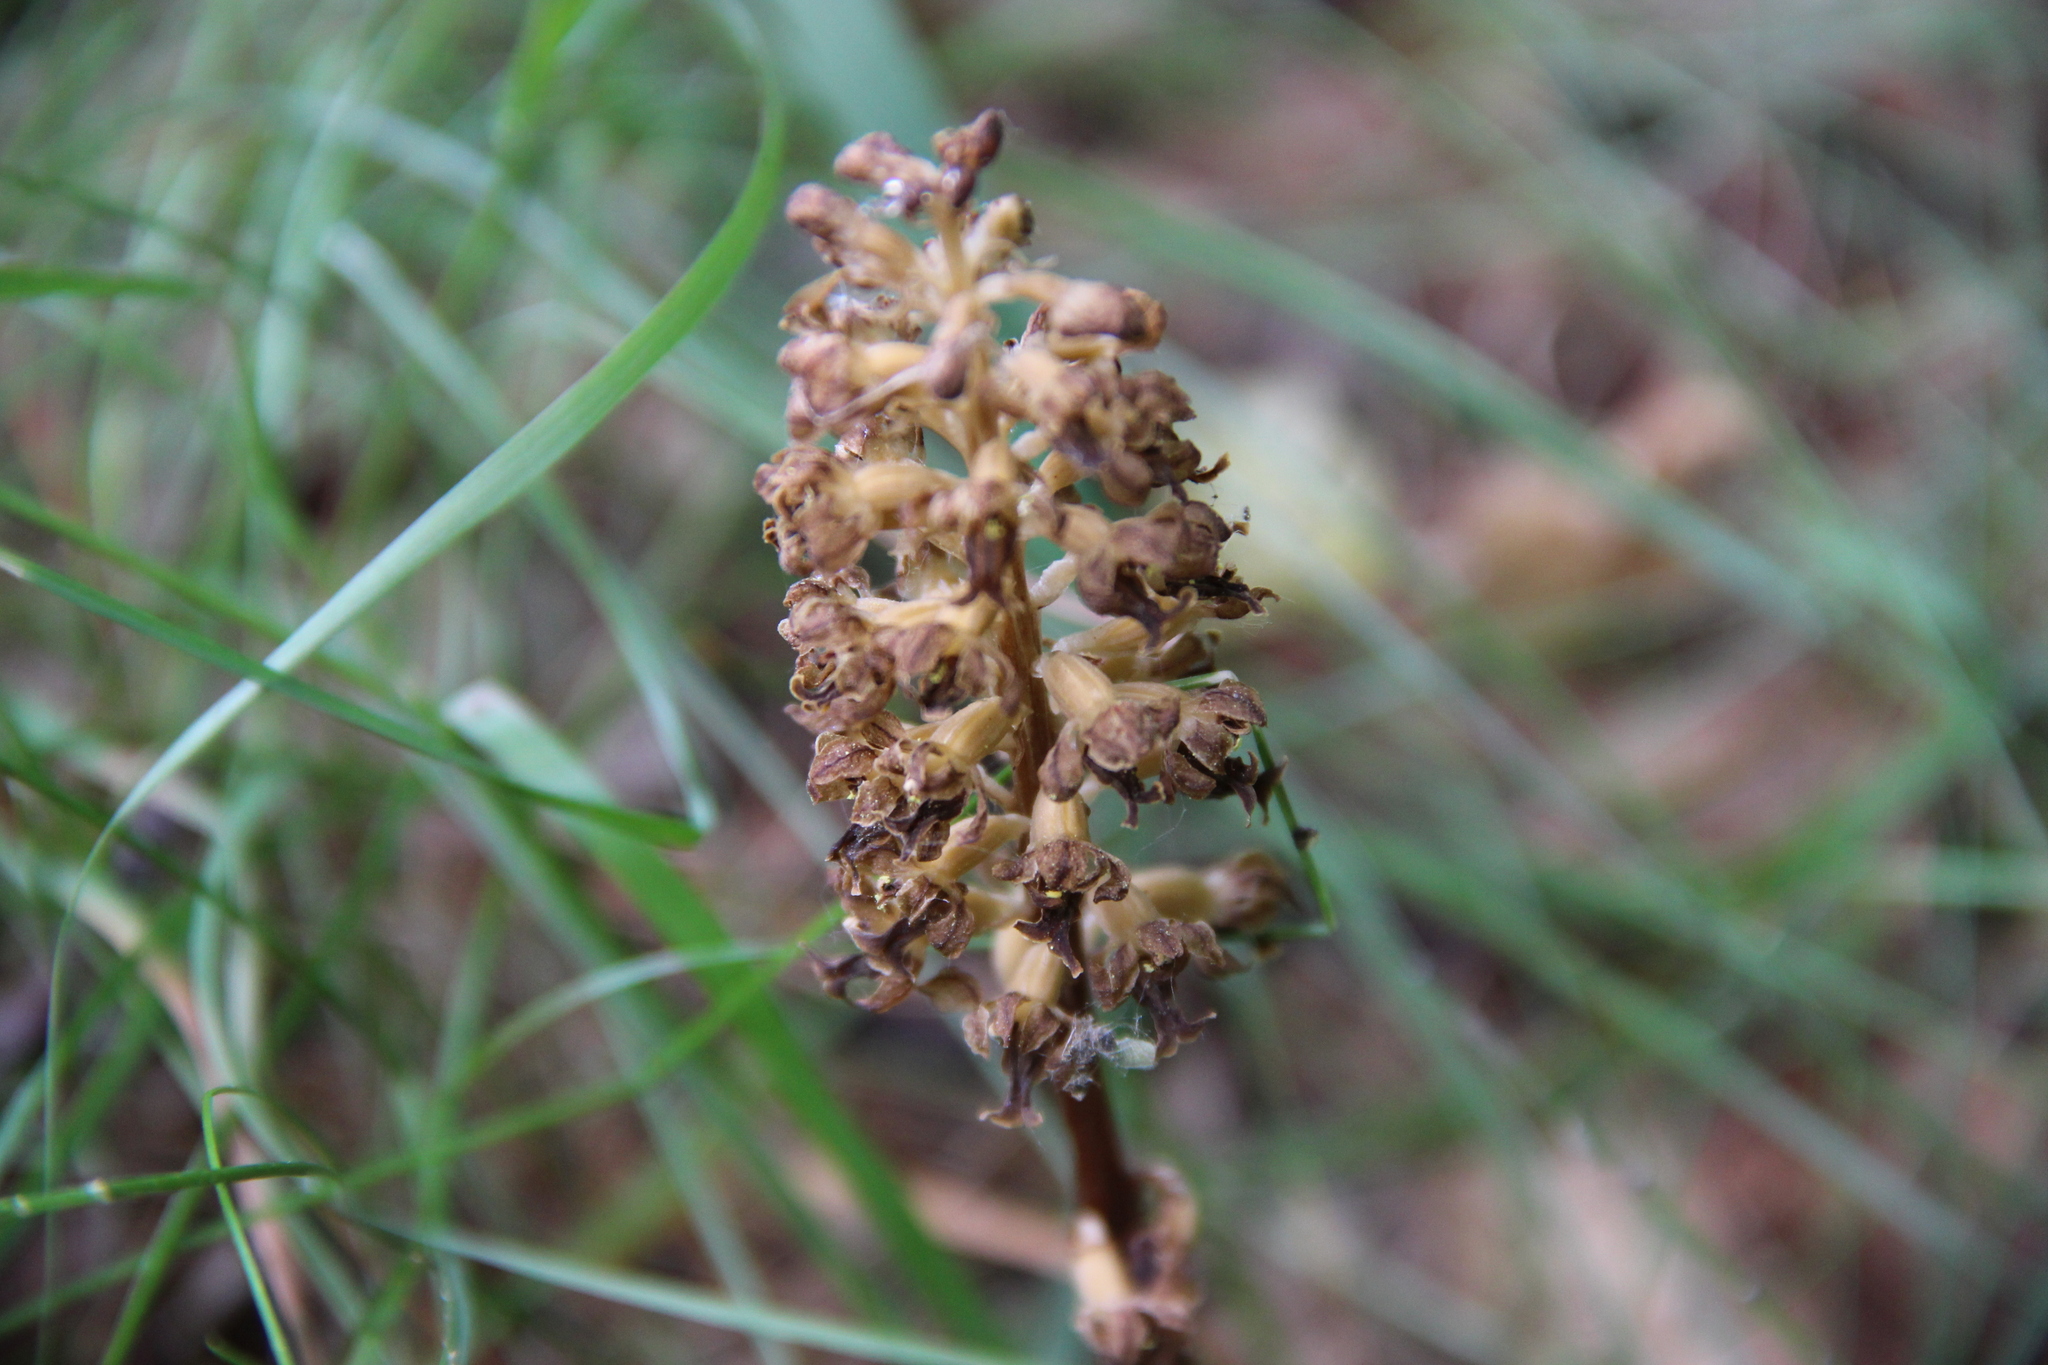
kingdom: Plantae
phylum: Tracheophyta
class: Liliopsida
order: Asparagales
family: Orchidaceae
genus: Neottia
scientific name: Neottia nidus-avis
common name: Bird's-nest orchid
